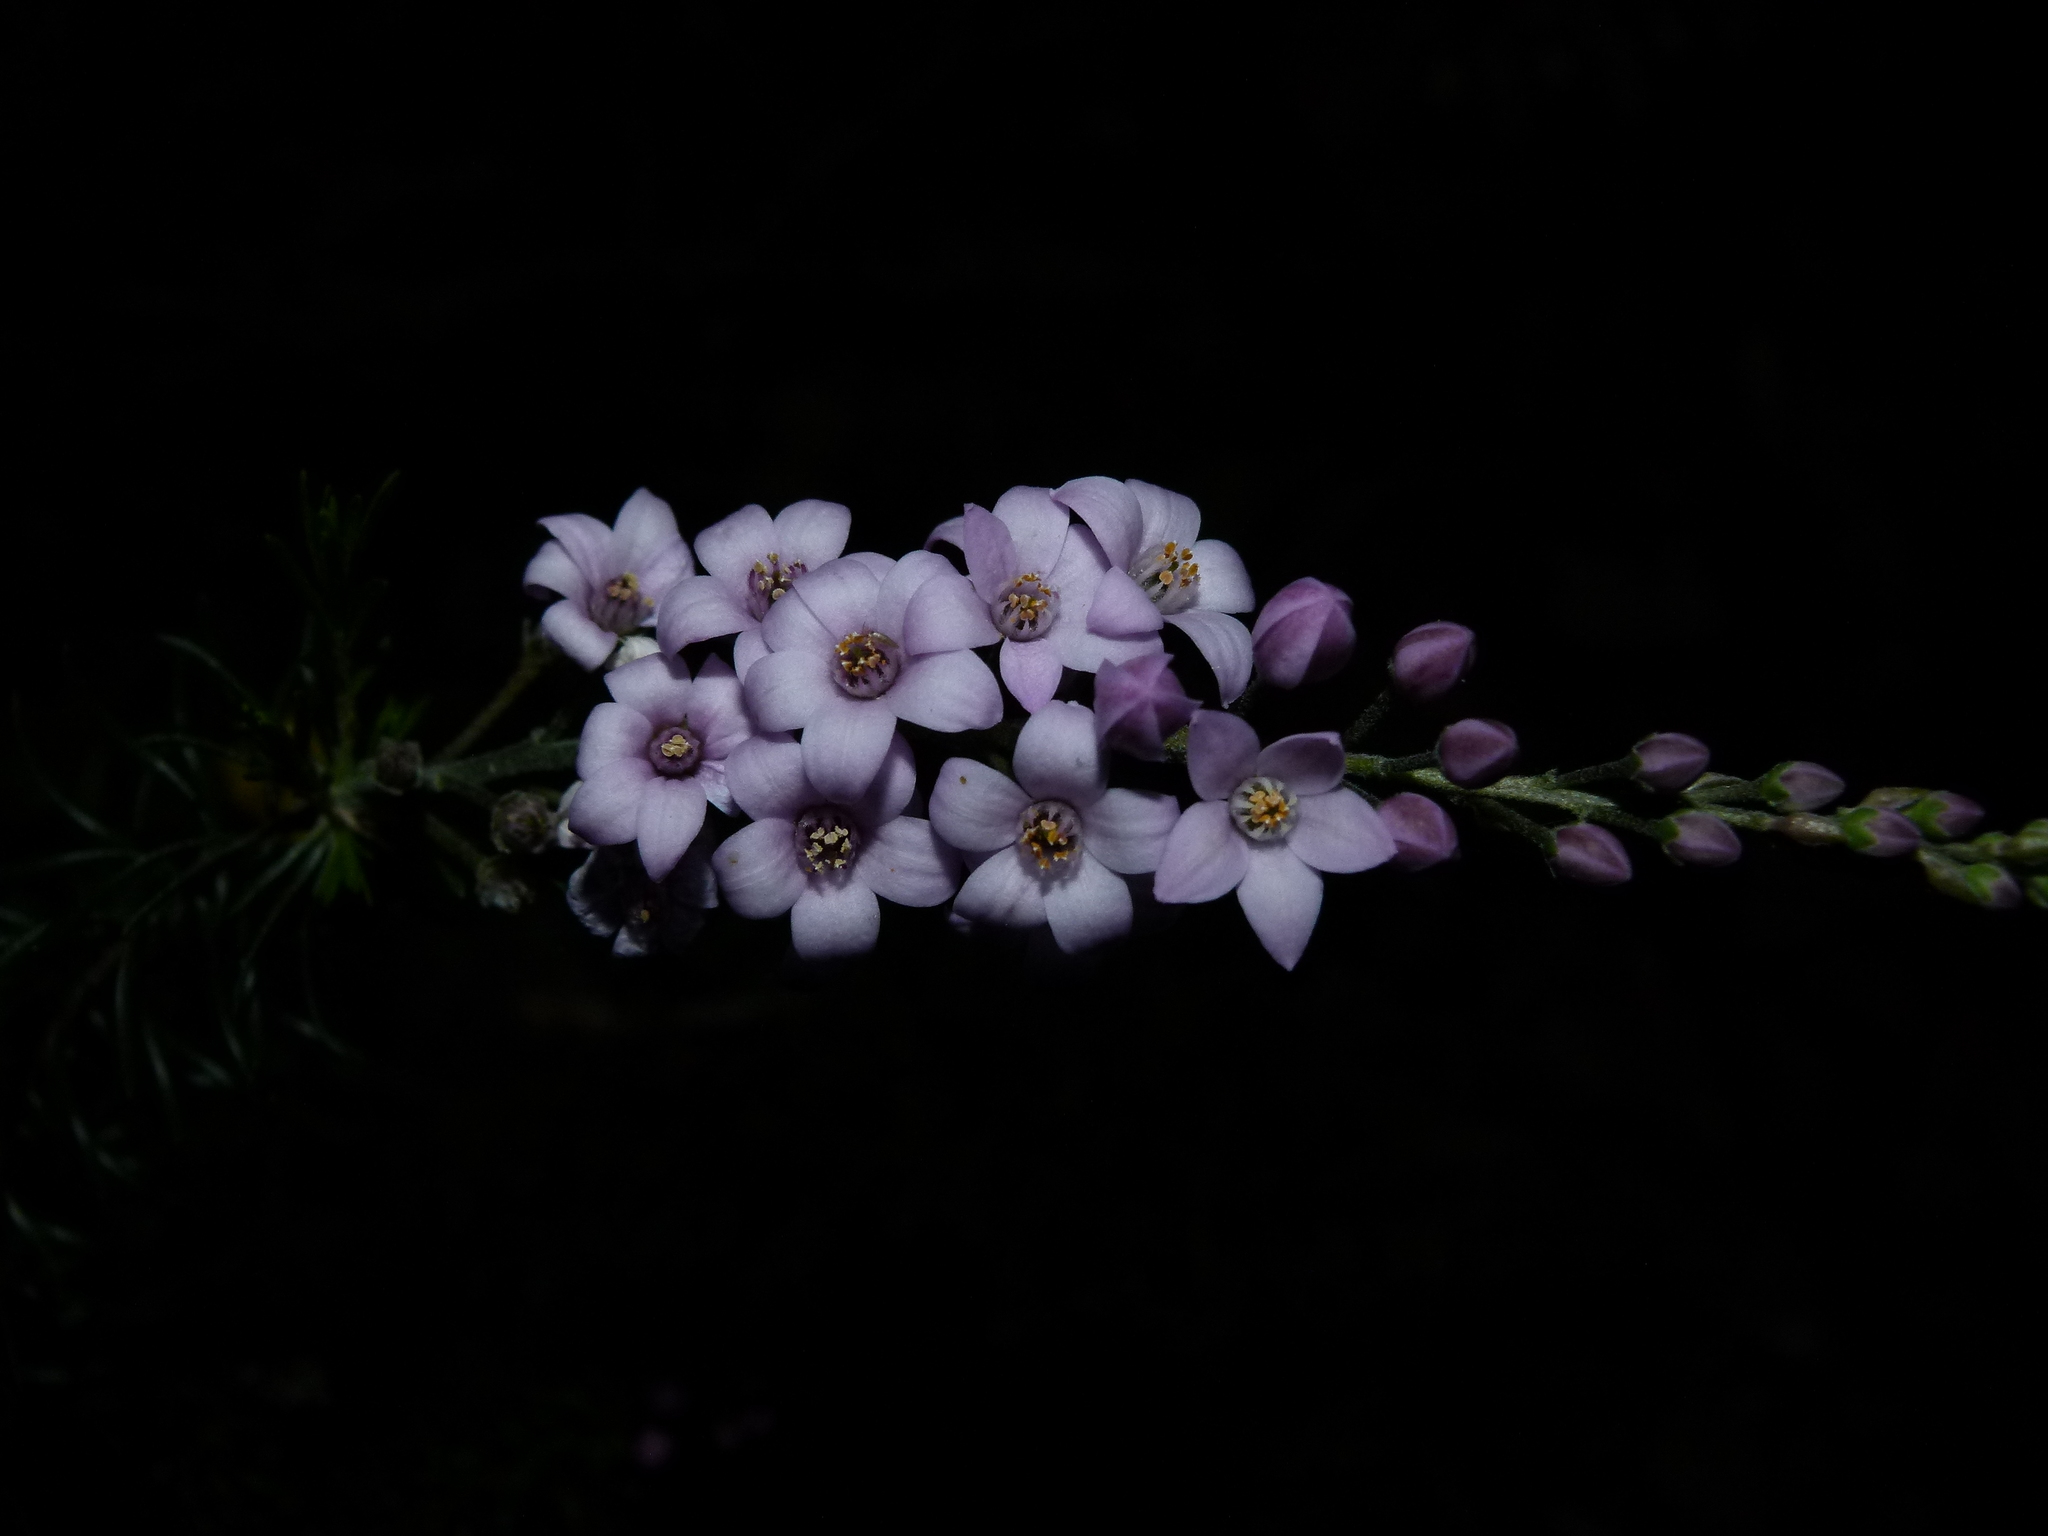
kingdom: Plantae
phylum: Tracheophyta
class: Magnoliopsida
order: Sapindales
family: Rutaceae
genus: Philotheca
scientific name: Philotheca spicata
